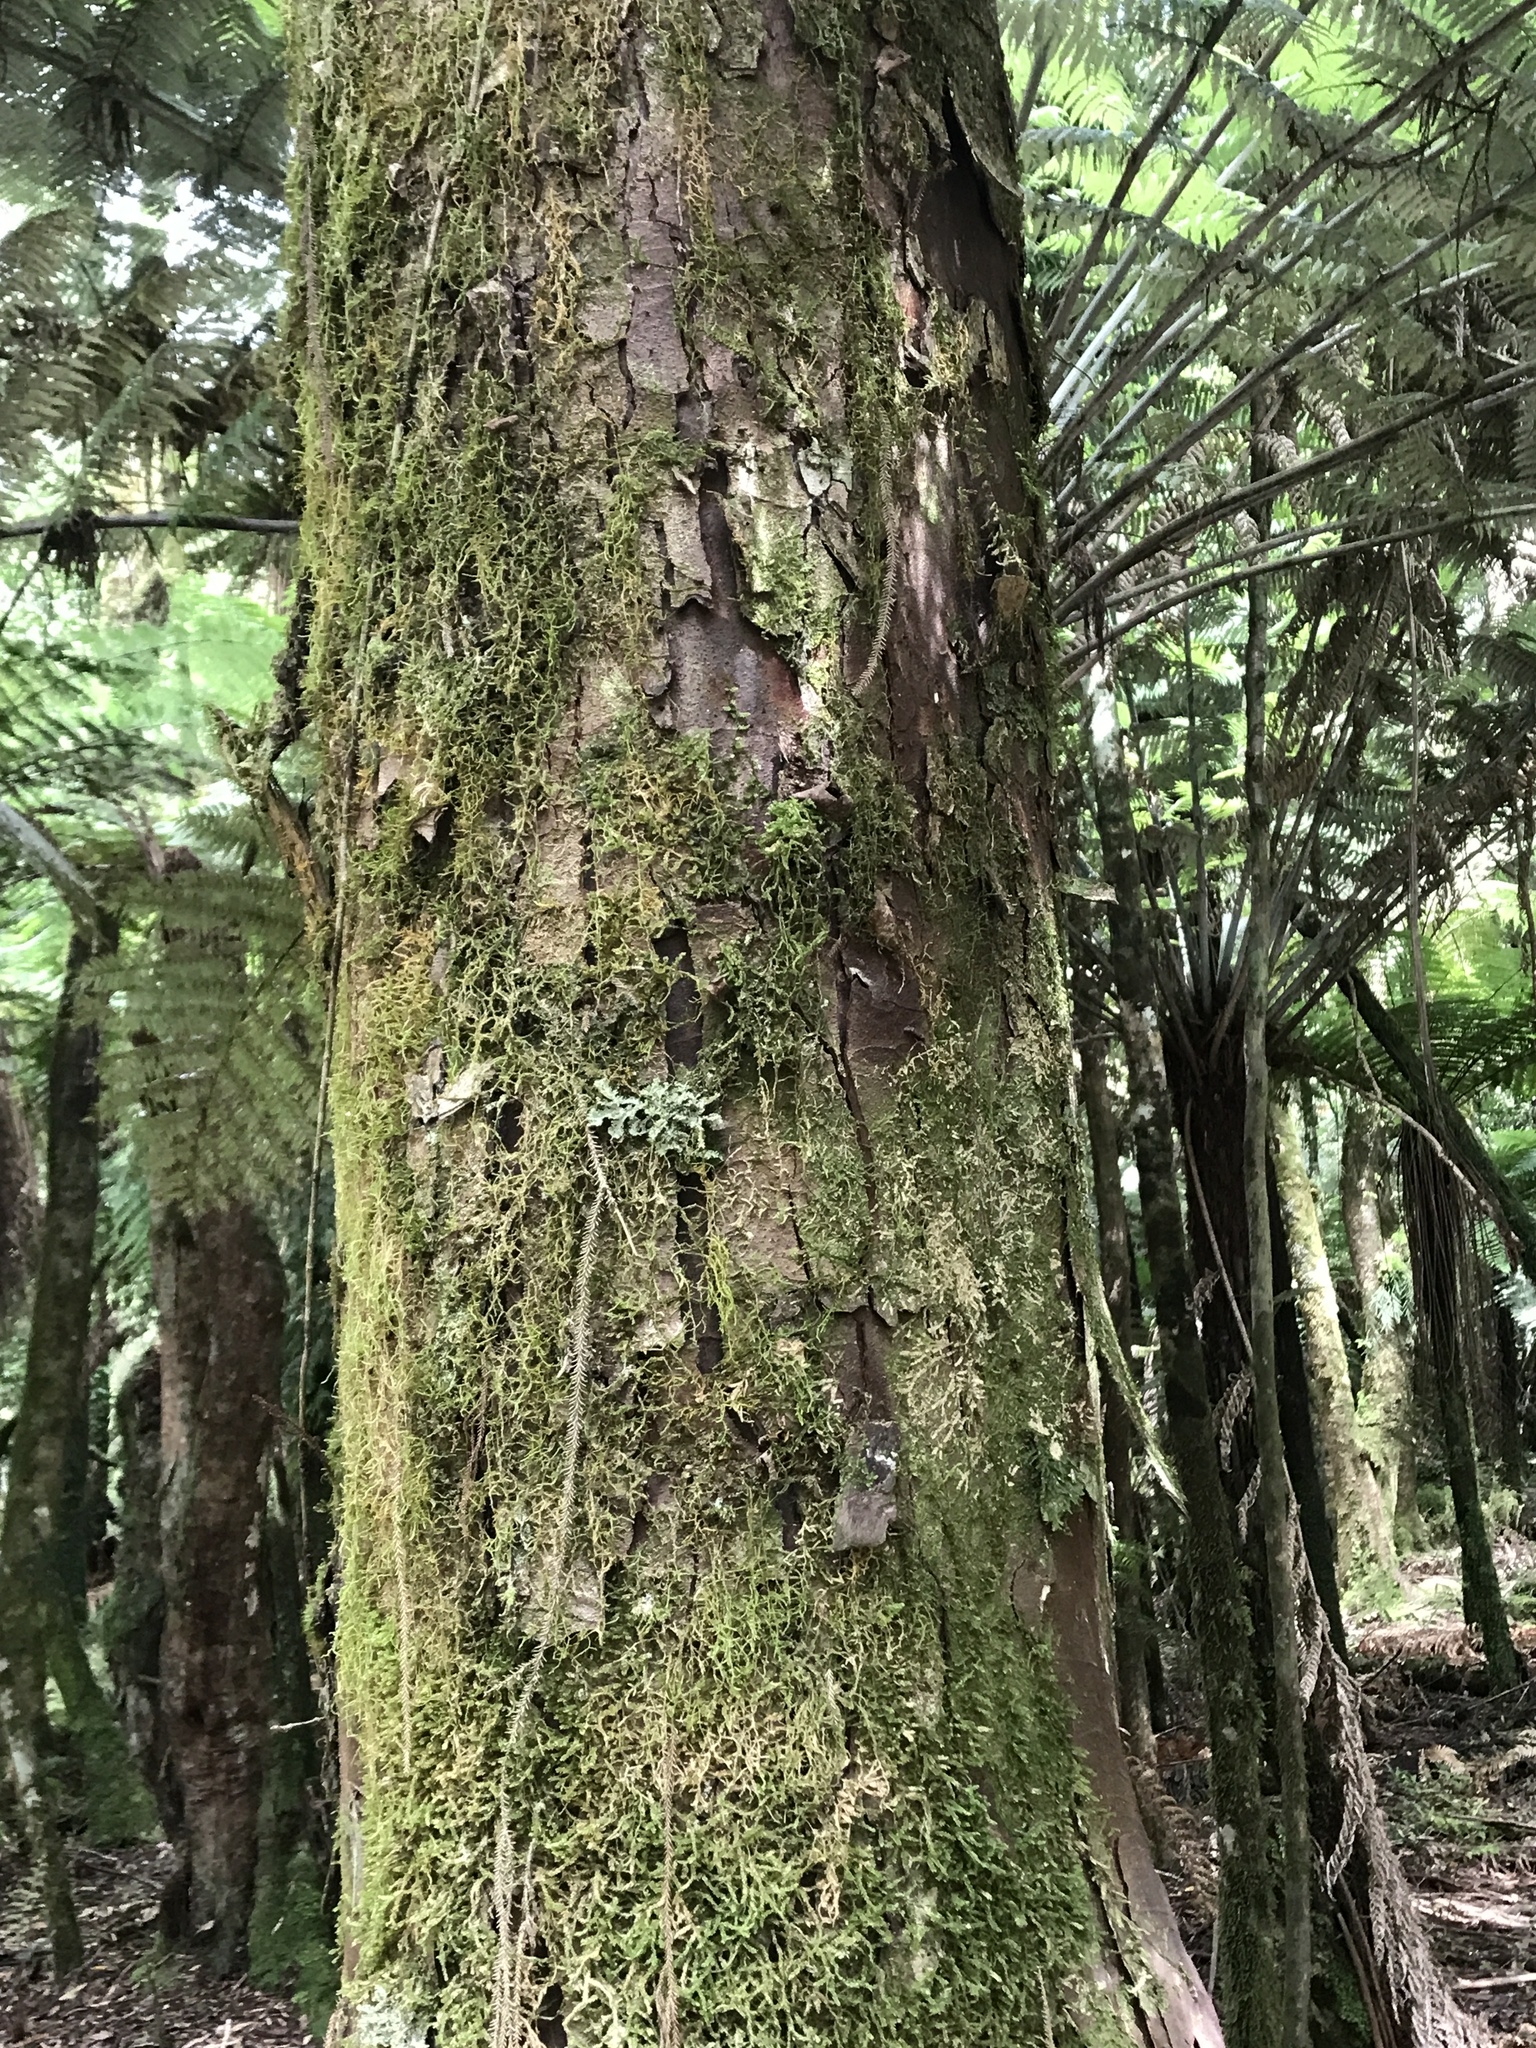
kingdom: Plantae
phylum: Tracheophyta
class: Pinopsida
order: Pinales
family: Podocarpaceae
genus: Dacrydium
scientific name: Dacrydium cupressinum
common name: Red pine
